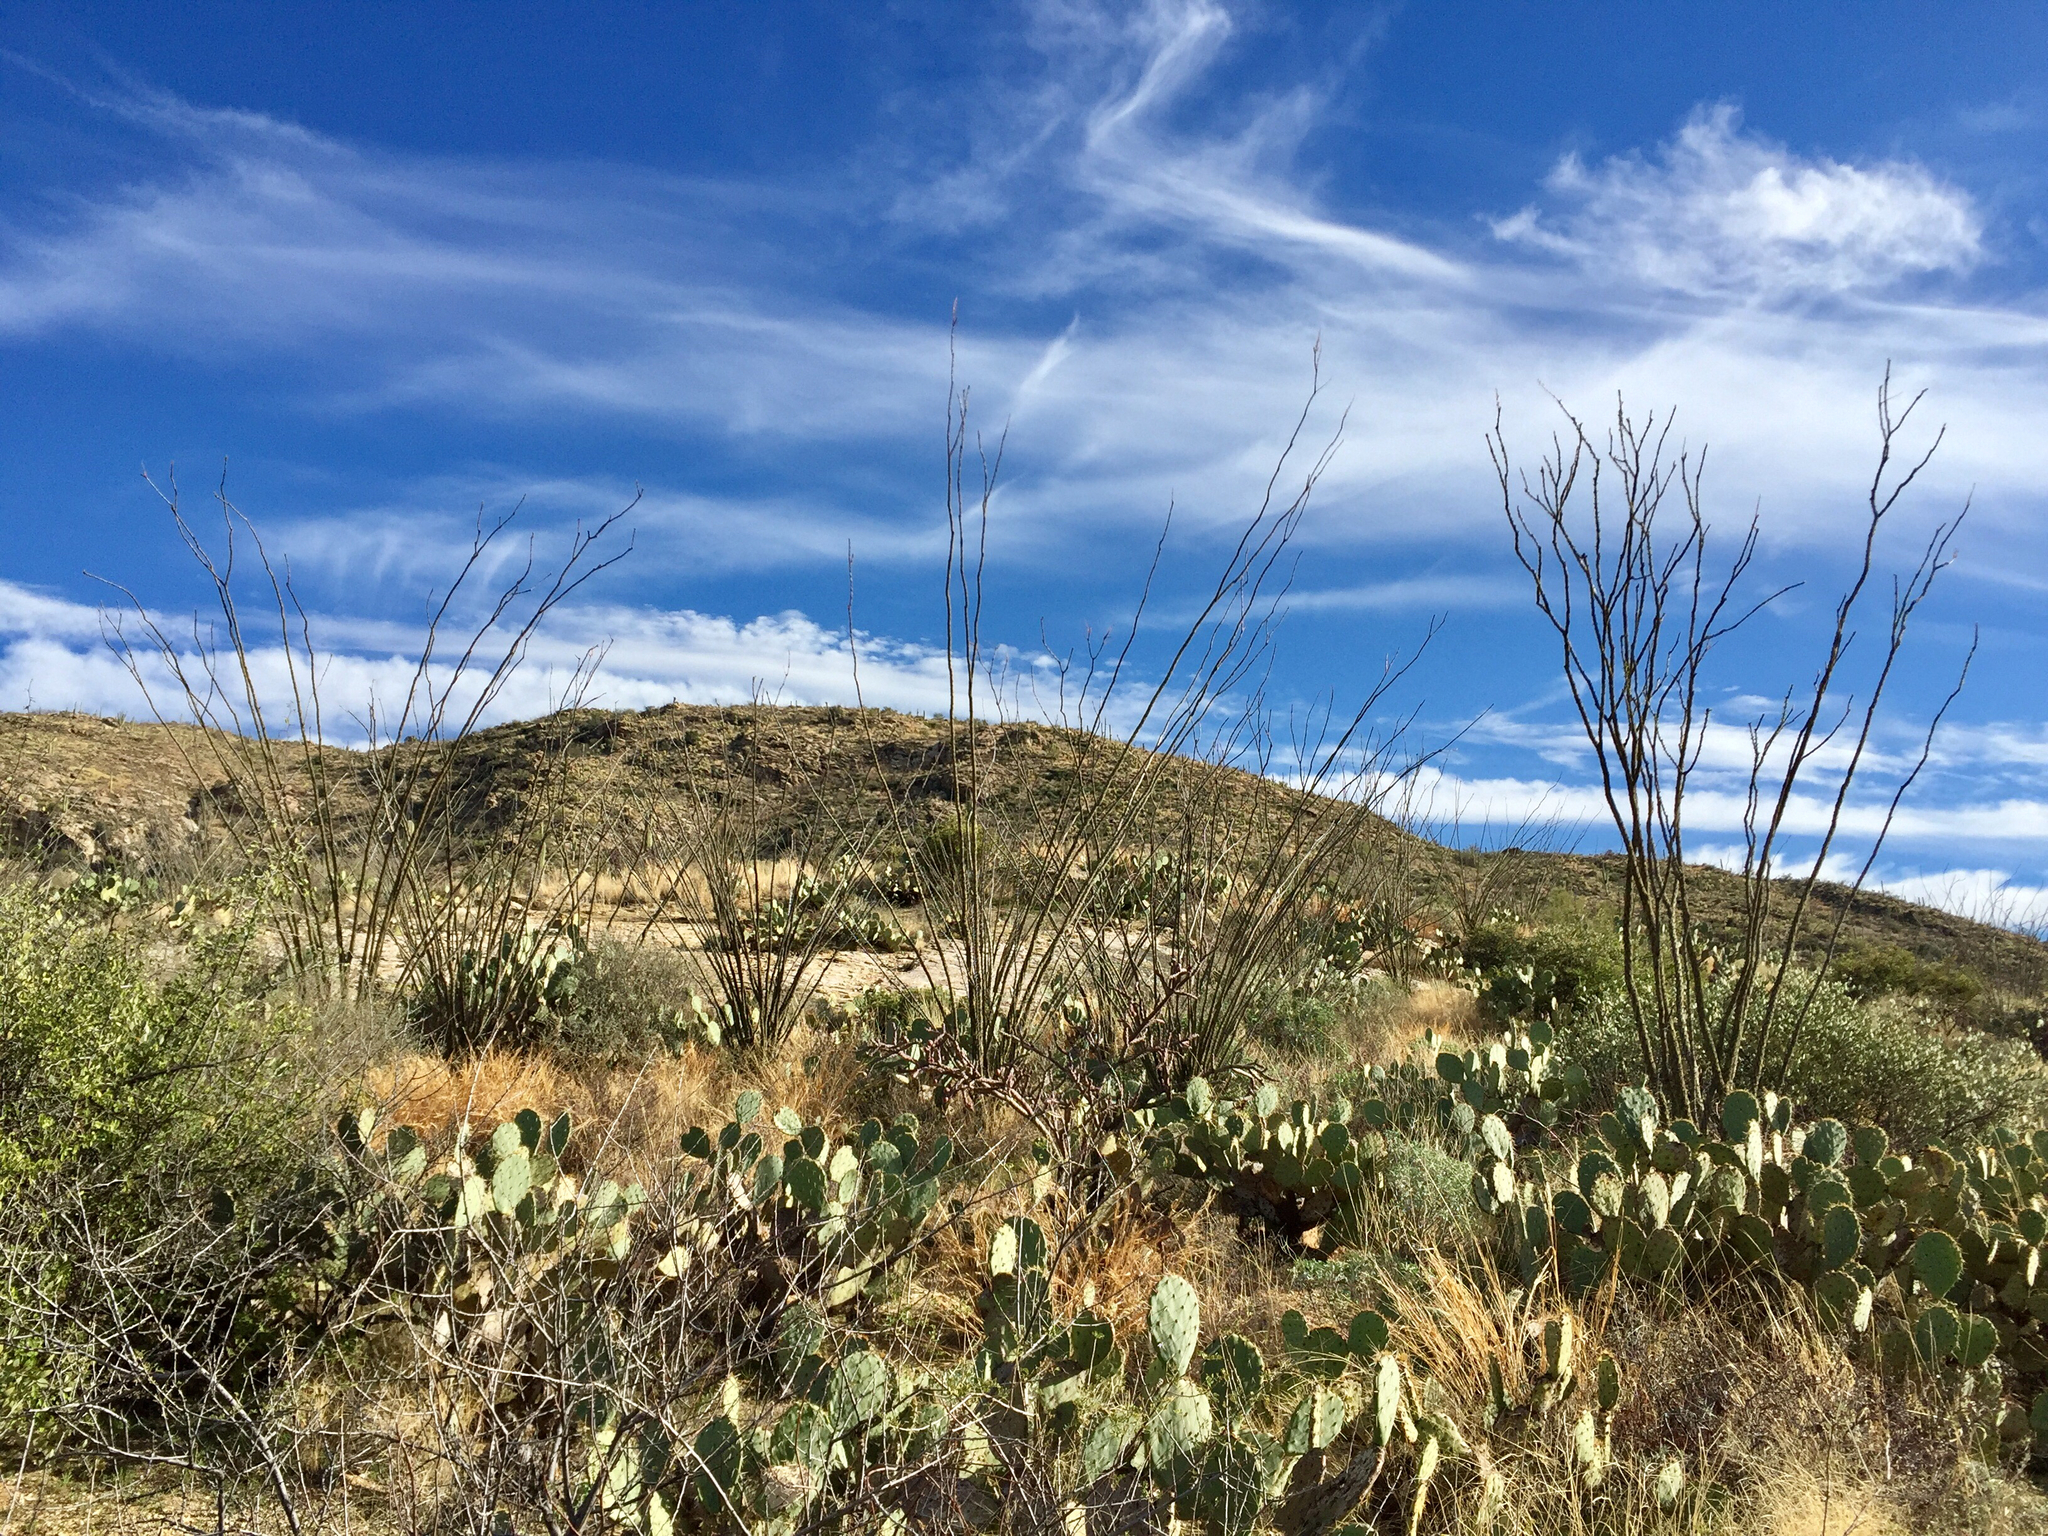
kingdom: Plantae
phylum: Tracheophyta
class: Magnoliopsida
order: Ericales
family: Fouquieriaceae
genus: Fouquieria
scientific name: Fouquieria splendens
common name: Vine-cactus
